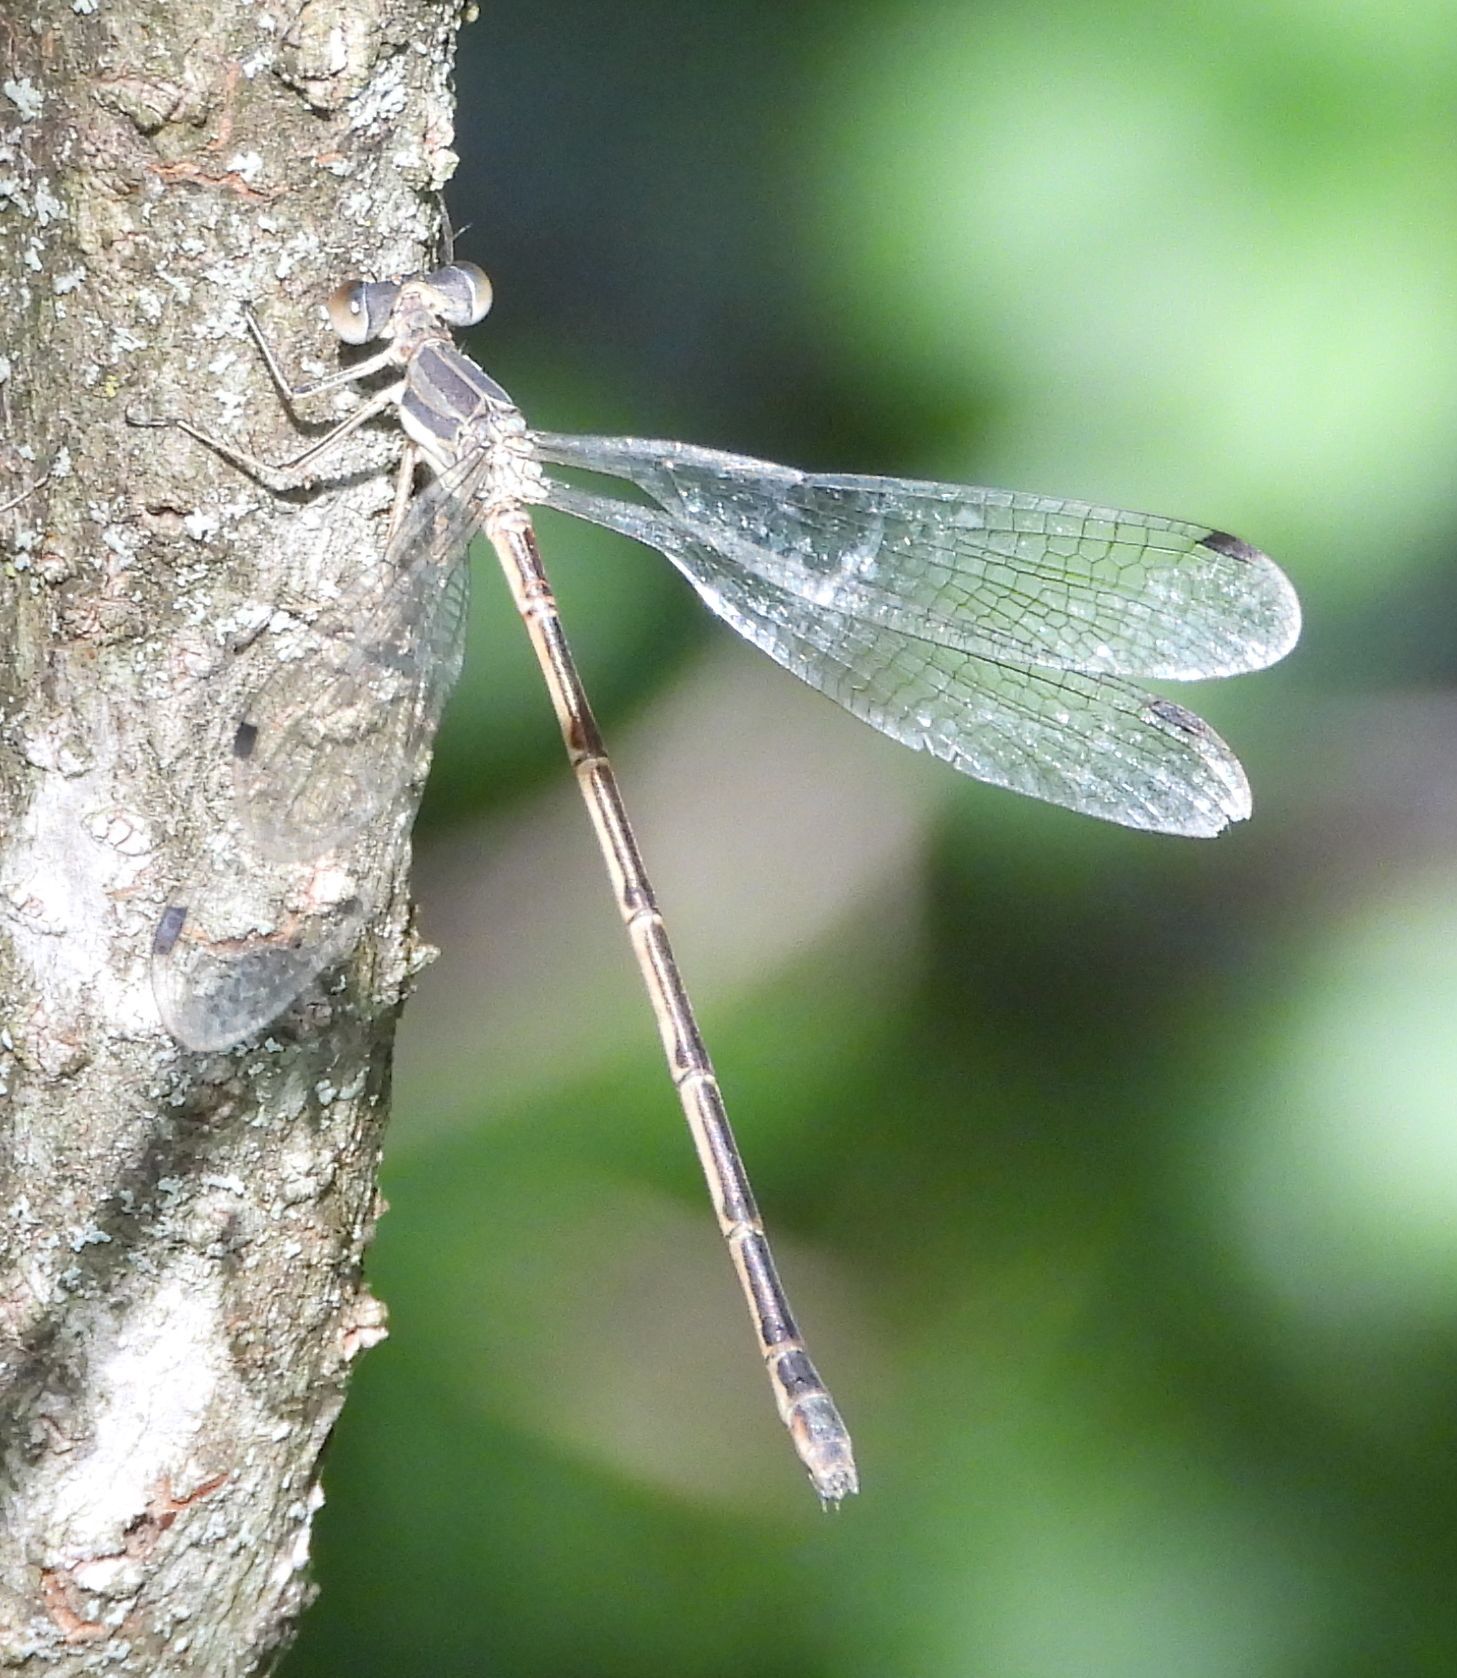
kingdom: Animalia
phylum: Arthropoda
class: Insecta
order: Odonata
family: Lestidae
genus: Lestes
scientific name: Lestes rectangularis
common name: Slender spreadwing
